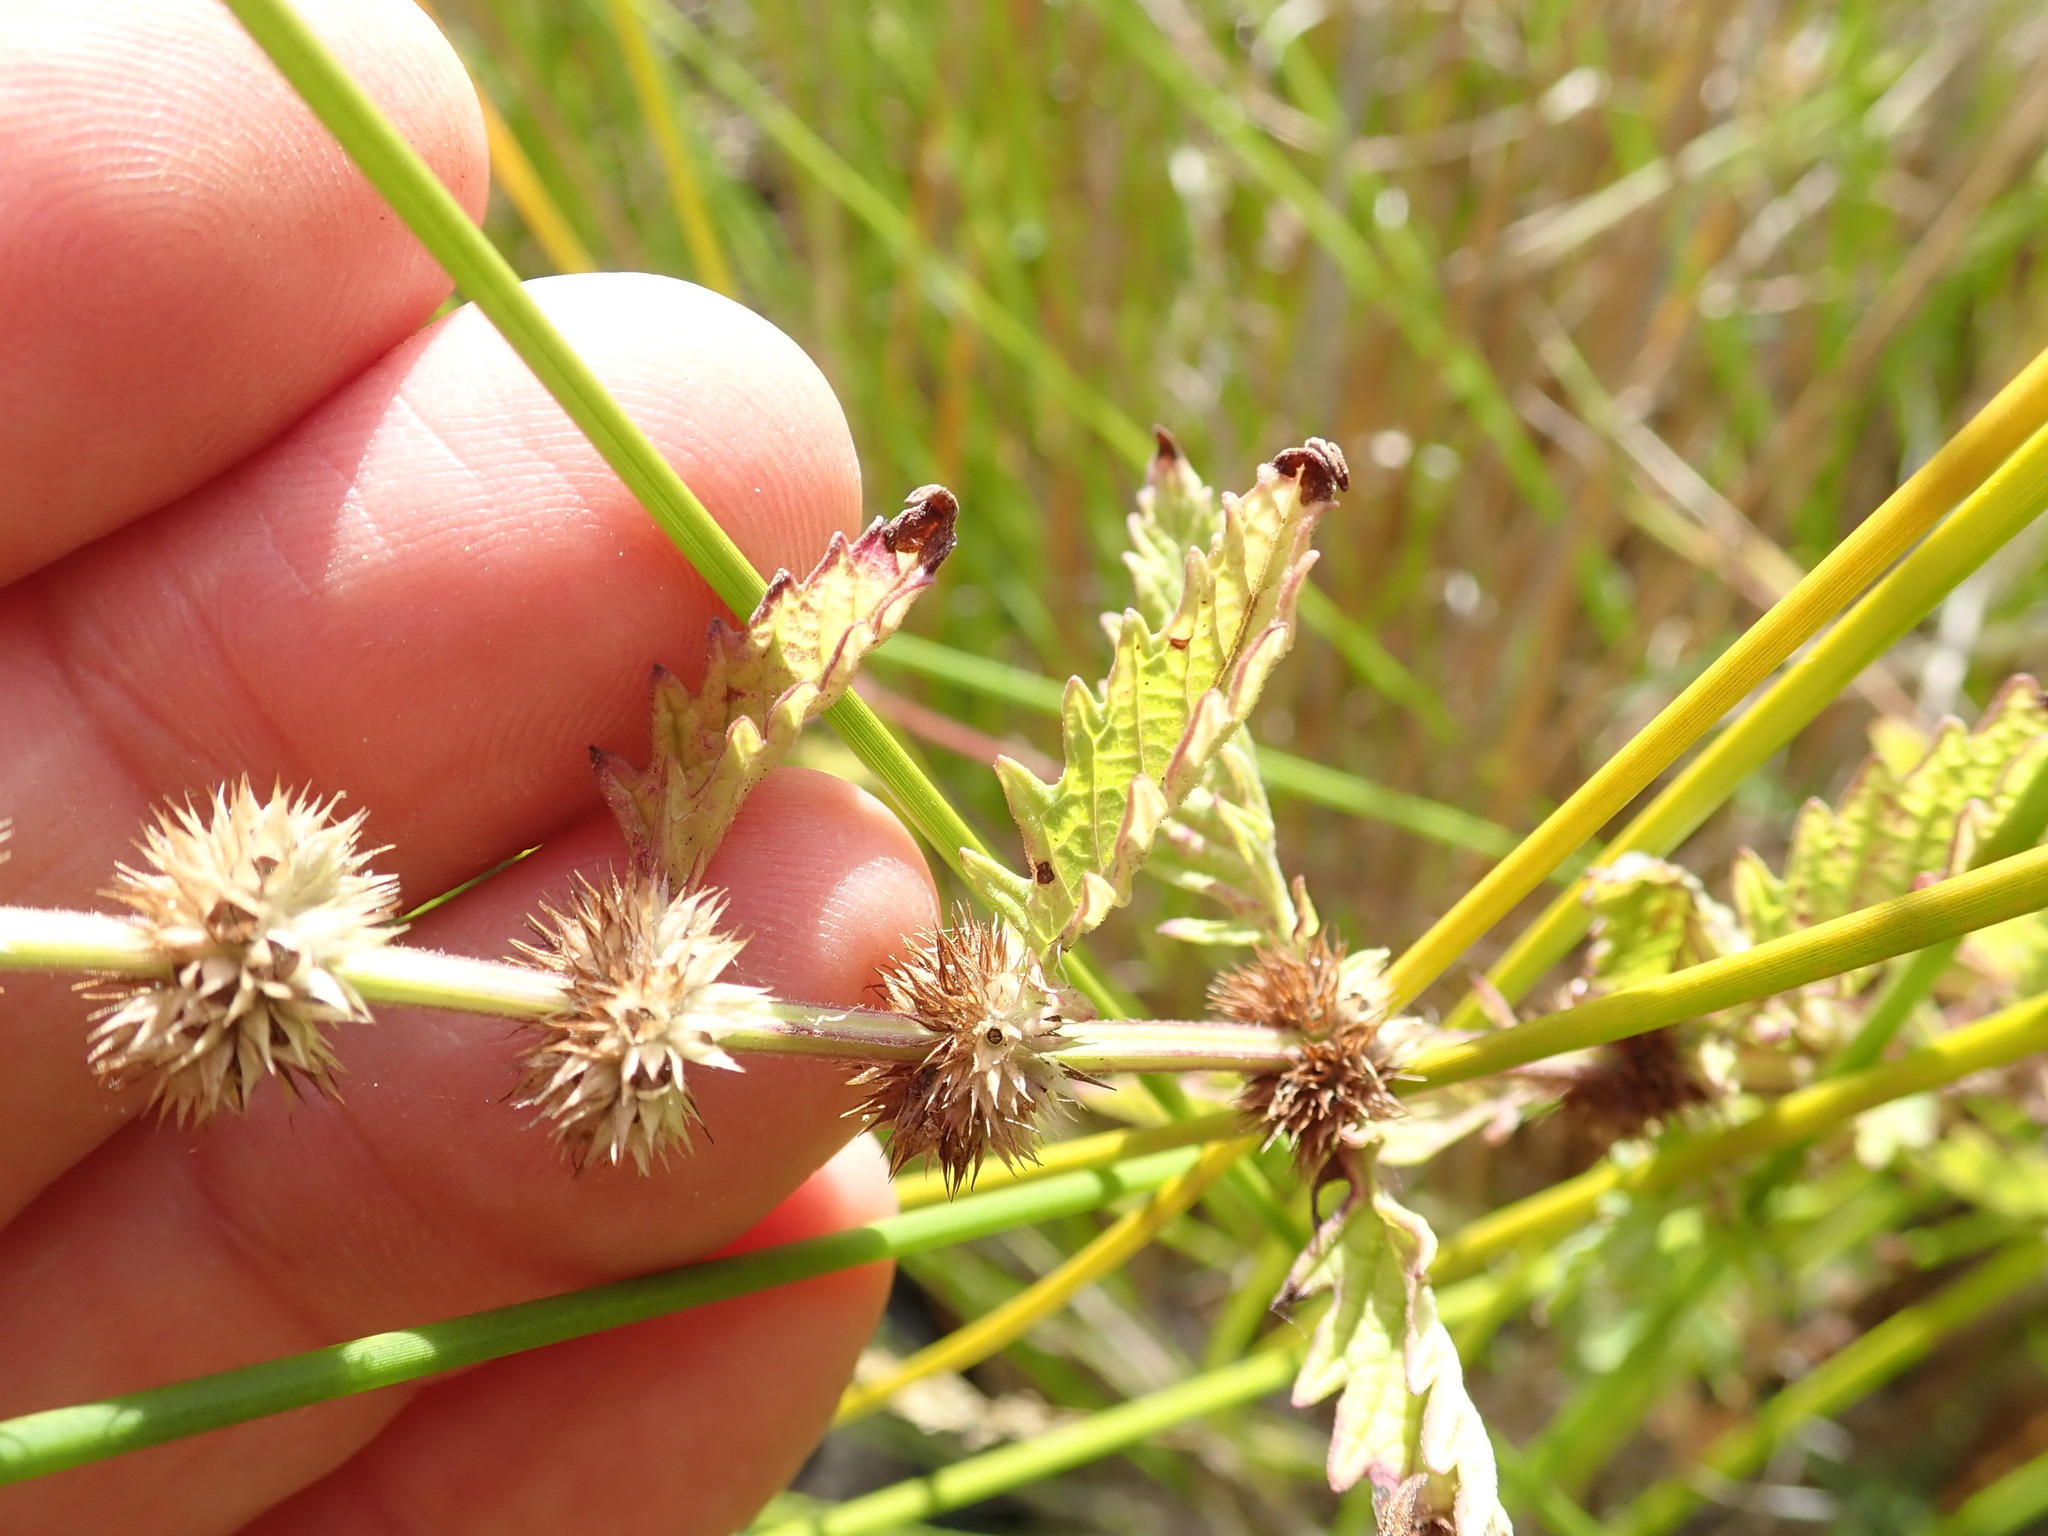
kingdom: Plantae
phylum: Tracheophyta
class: Magnoliopsida
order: Lamiales
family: Lamiaceae
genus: Lycopus
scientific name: Lycopus europaeus
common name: European bugleweed
